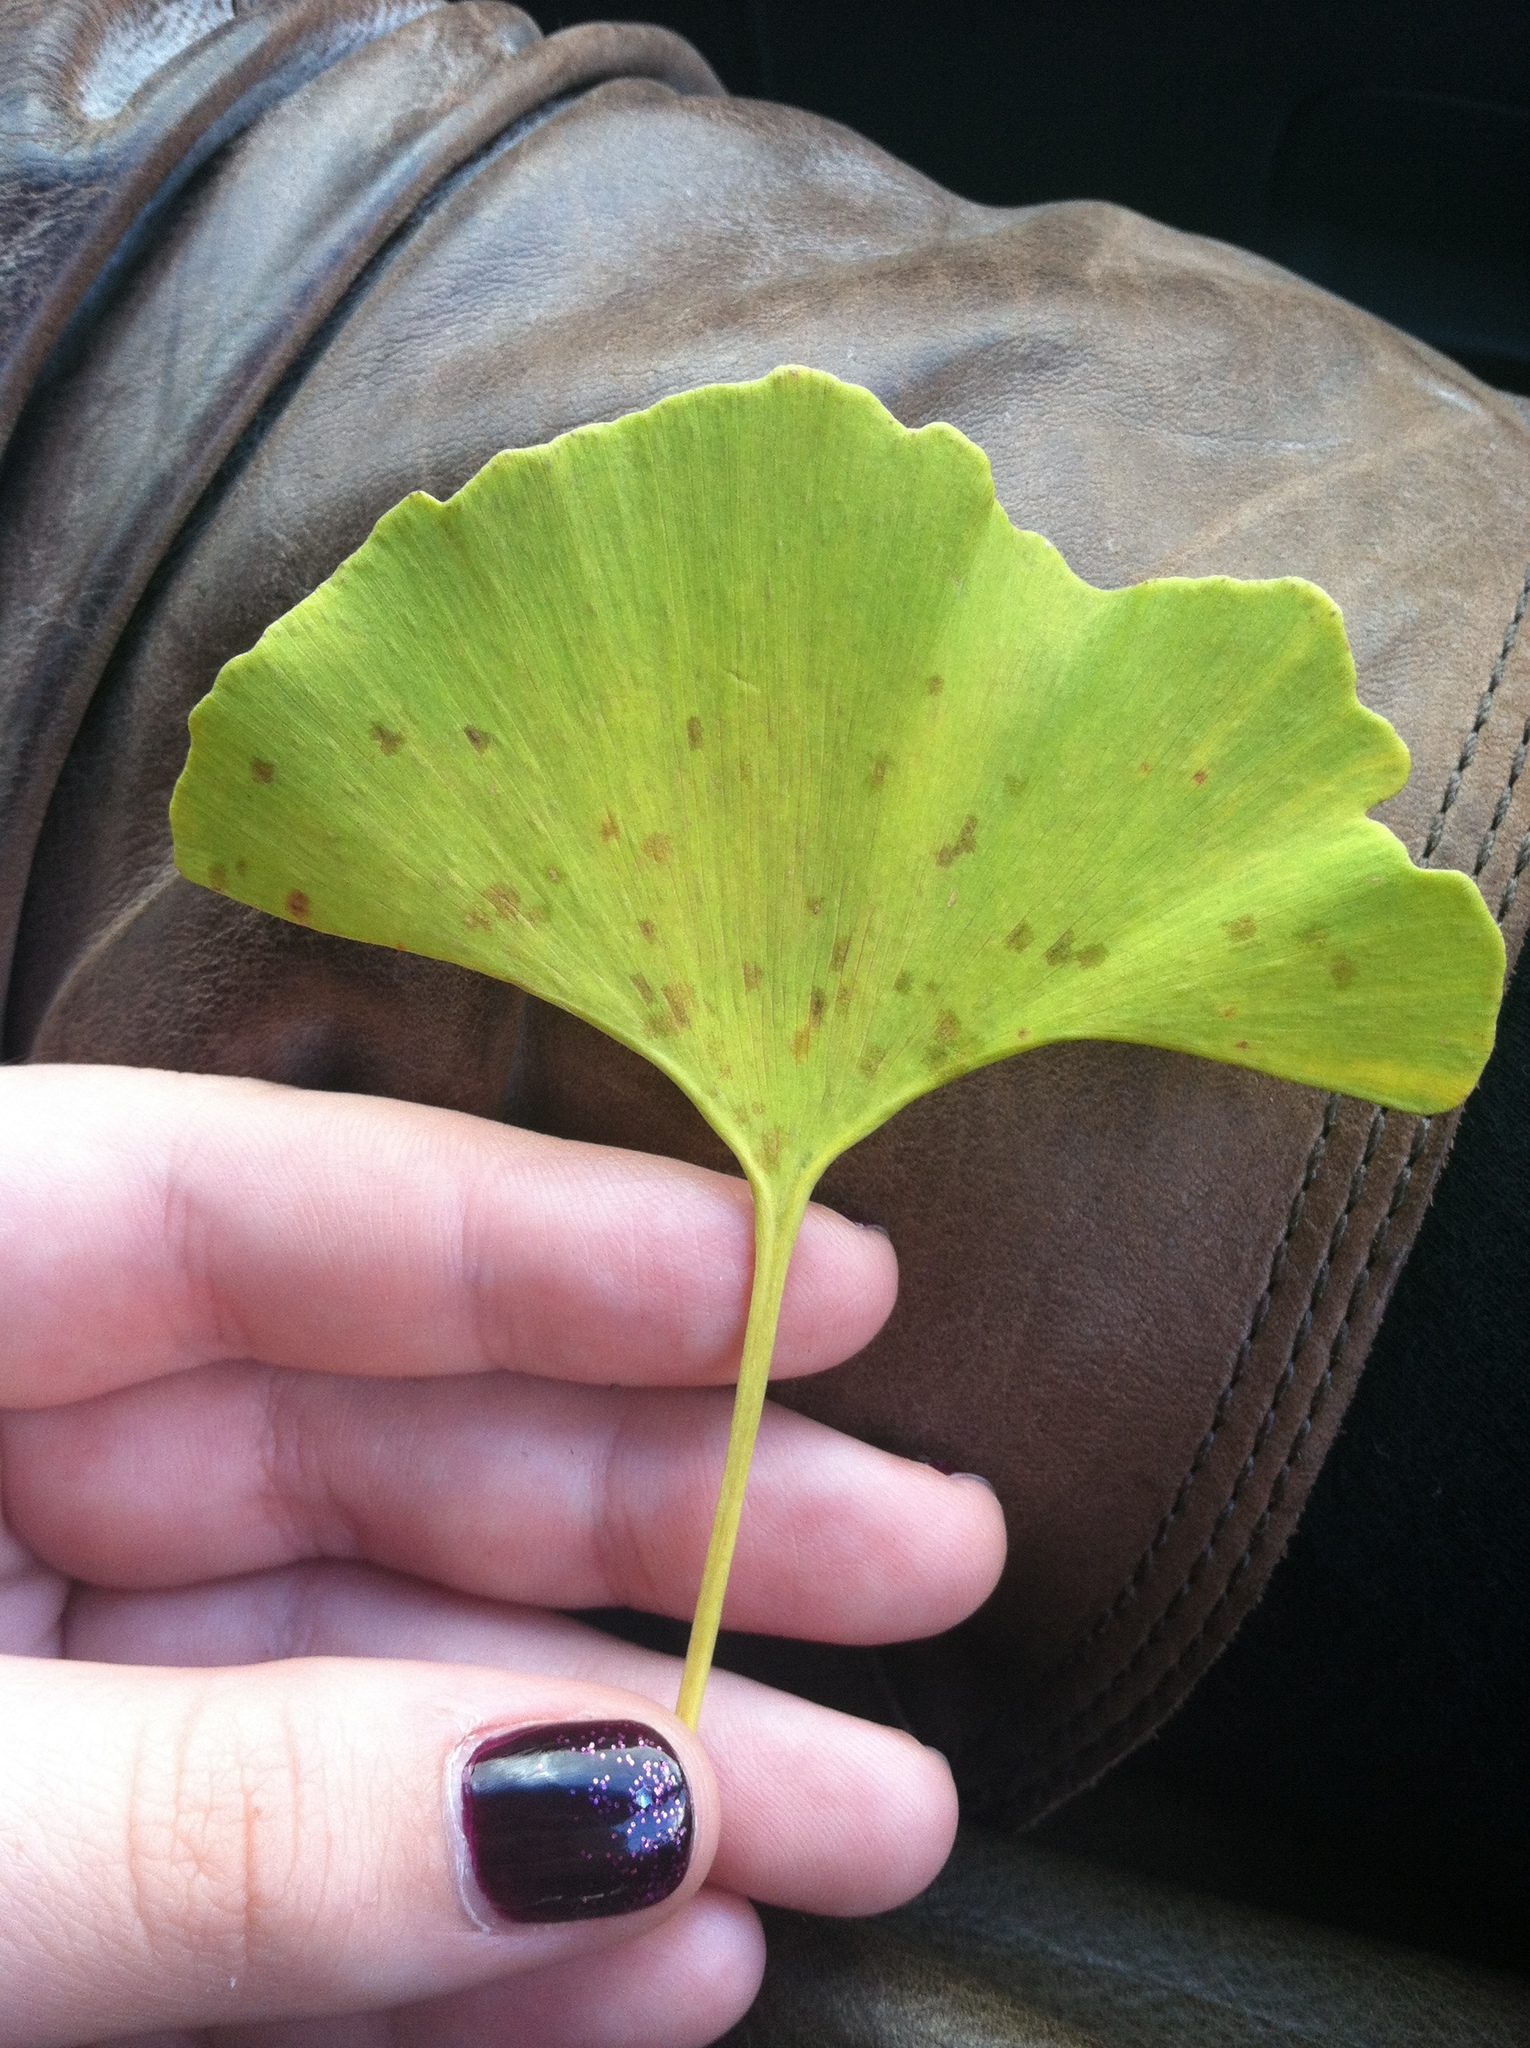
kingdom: Fungi
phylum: Basidiomycota
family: Bartheletiaceae
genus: Bartheletia
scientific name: Bartheletia paradoxa
